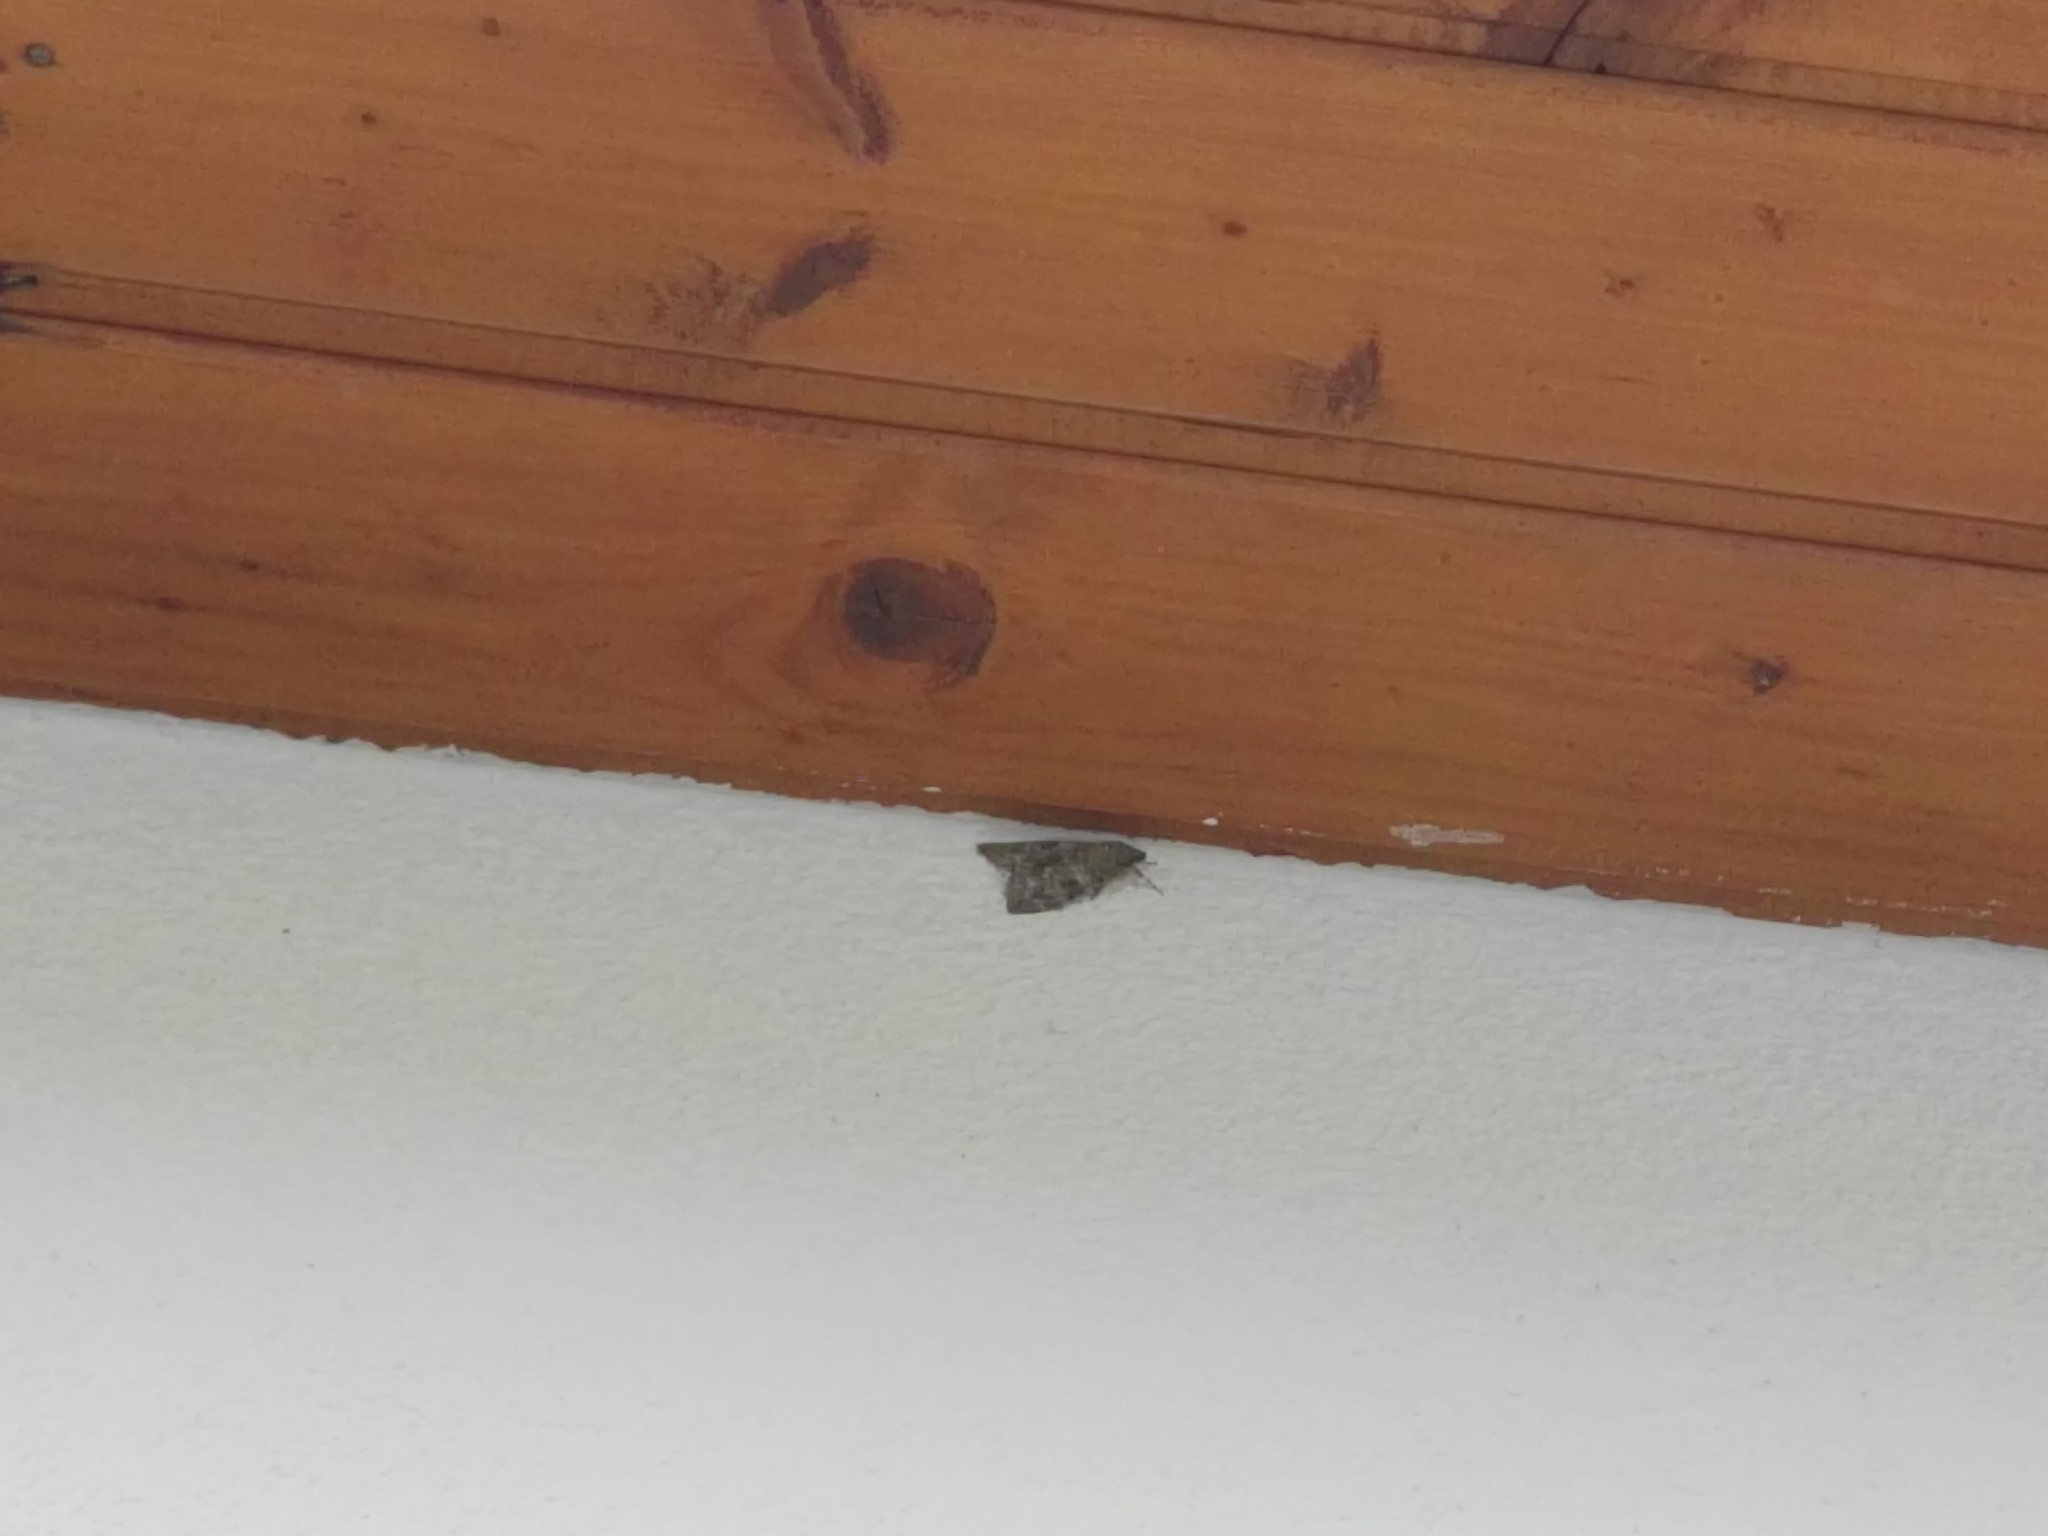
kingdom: Animalia
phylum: Arthropoda
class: Insecta
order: Lepidoptera
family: Erebidae
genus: Catocala
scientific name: Catocala nupta
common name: Red underwing
